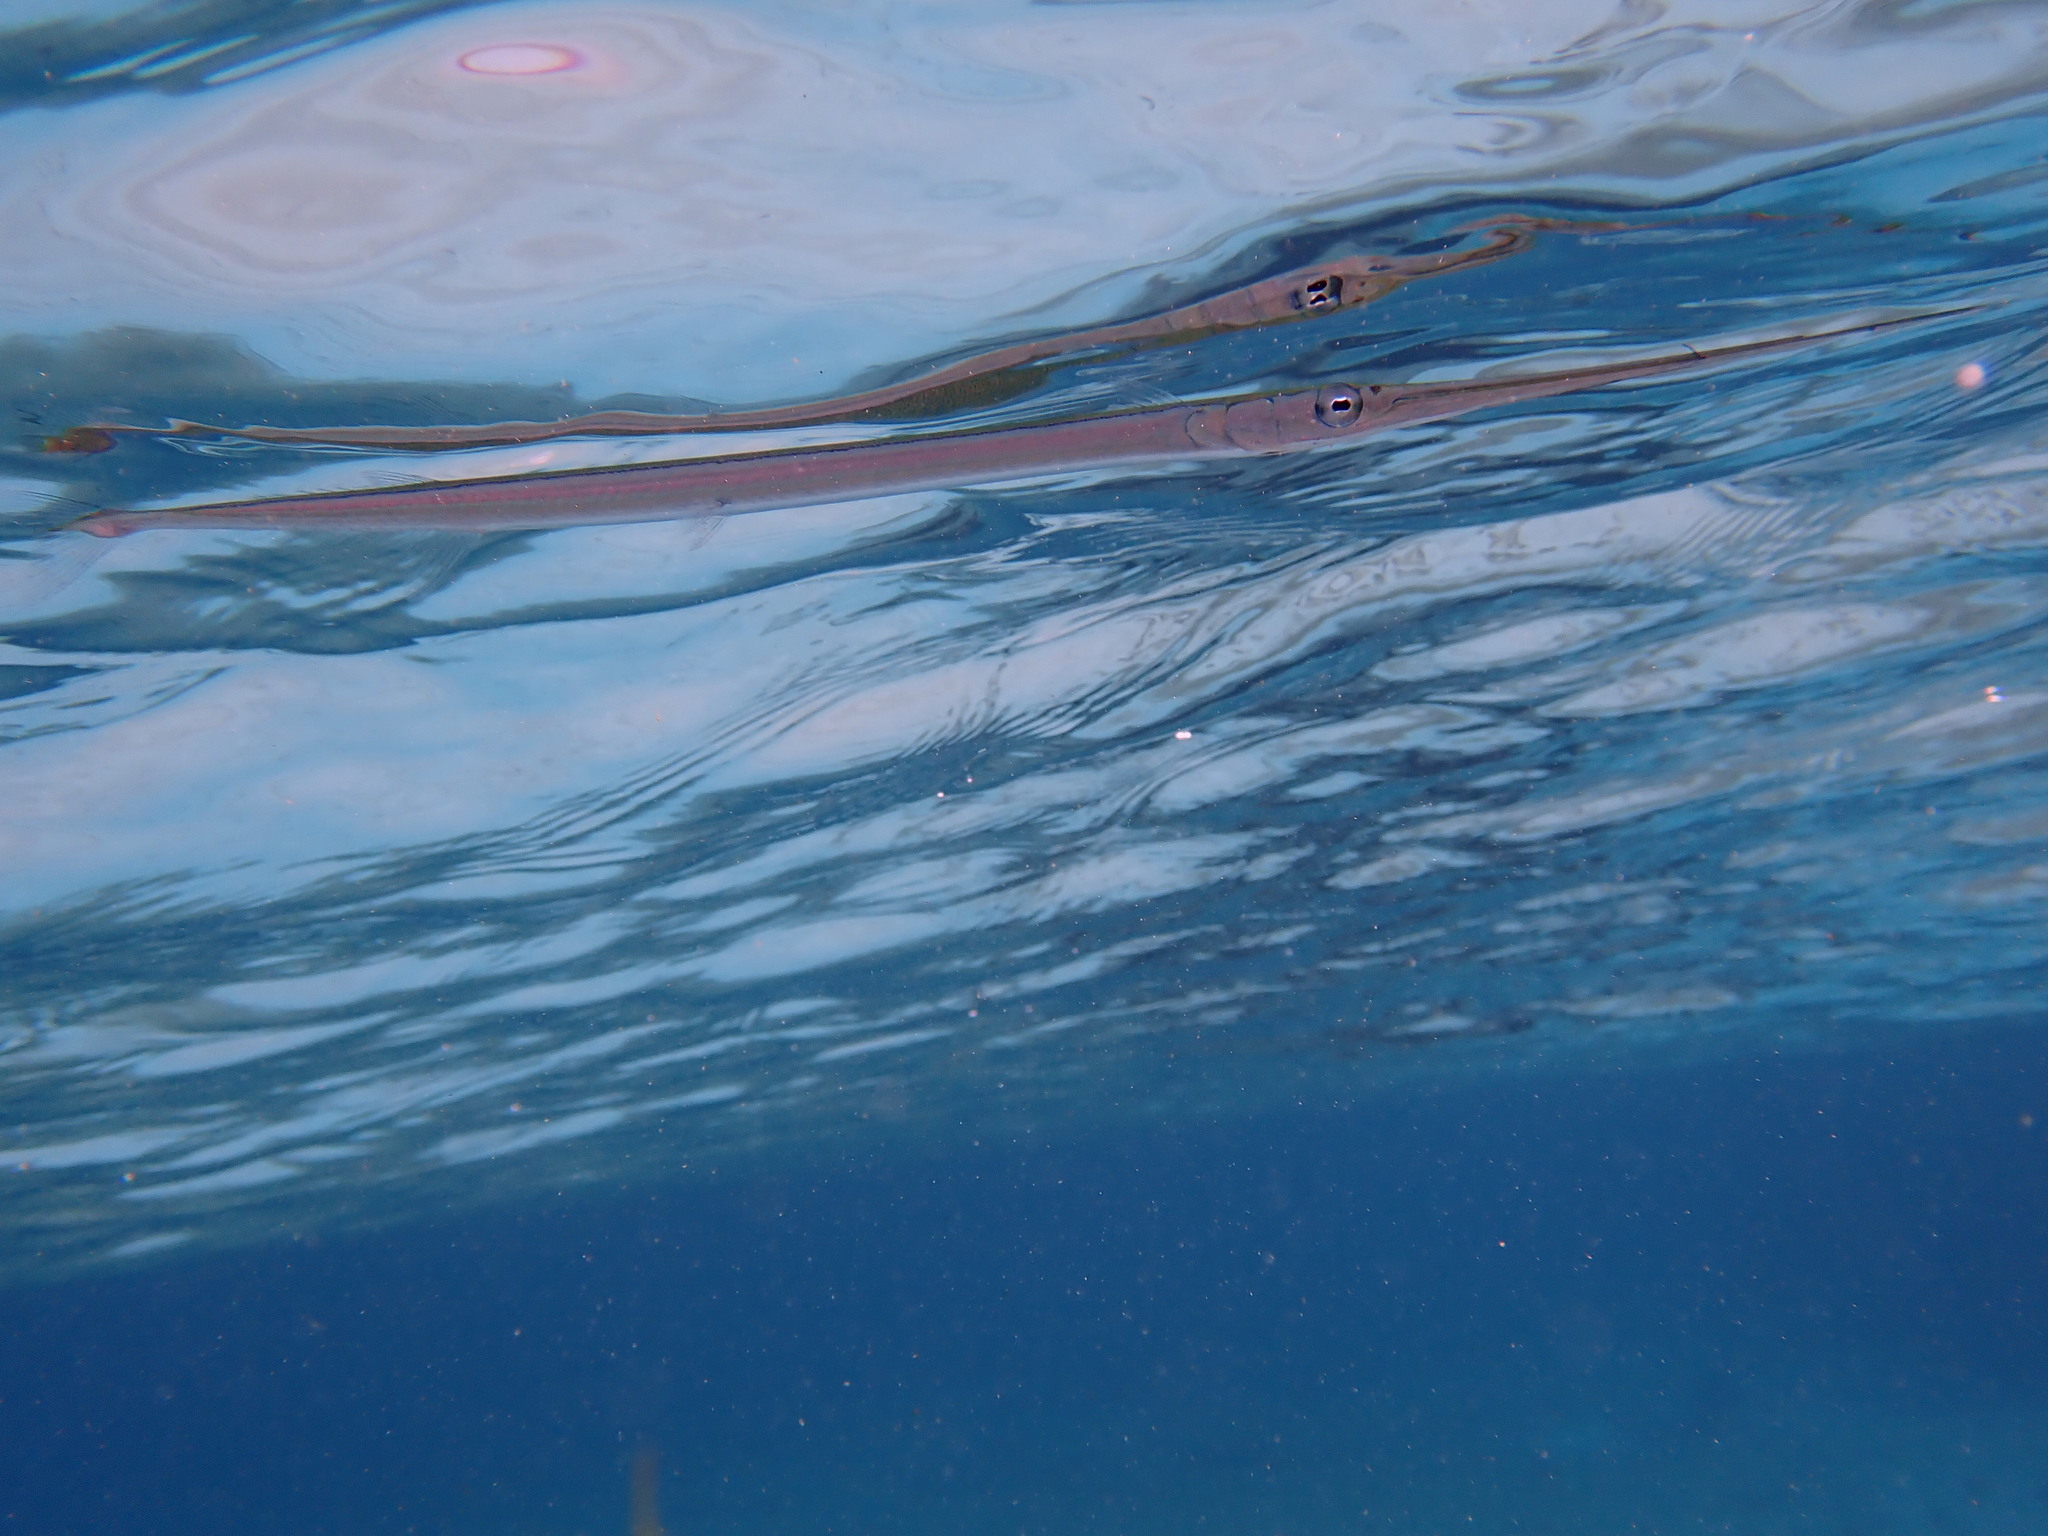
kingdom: Animalia
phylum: Chordata
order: Beloniformes
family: Belonidae
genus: Platybelone
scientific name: Platybelone argalus
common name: Keeltail needlefish
